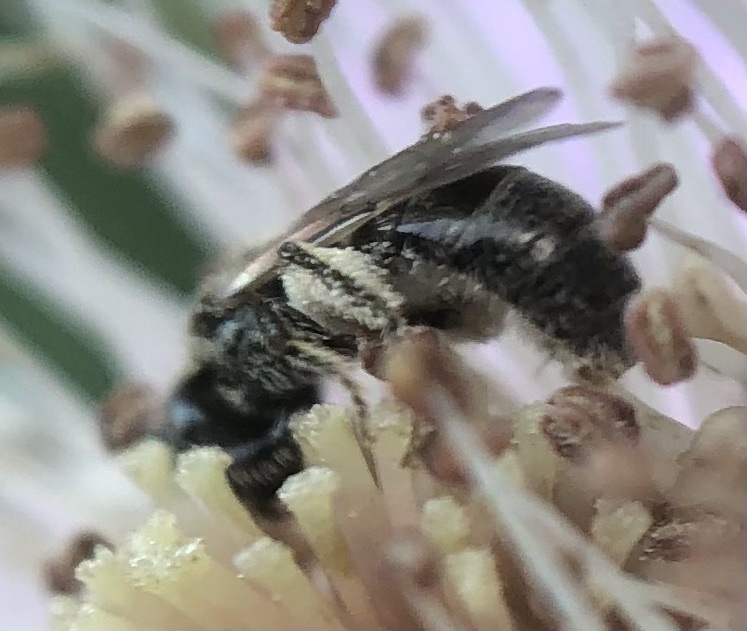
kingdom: Animalia
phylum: Arthropoda
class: Insecta
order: Hymenoptera
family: Halictidae
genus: Lasioglossum
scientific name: Lasioglossum imitatum
